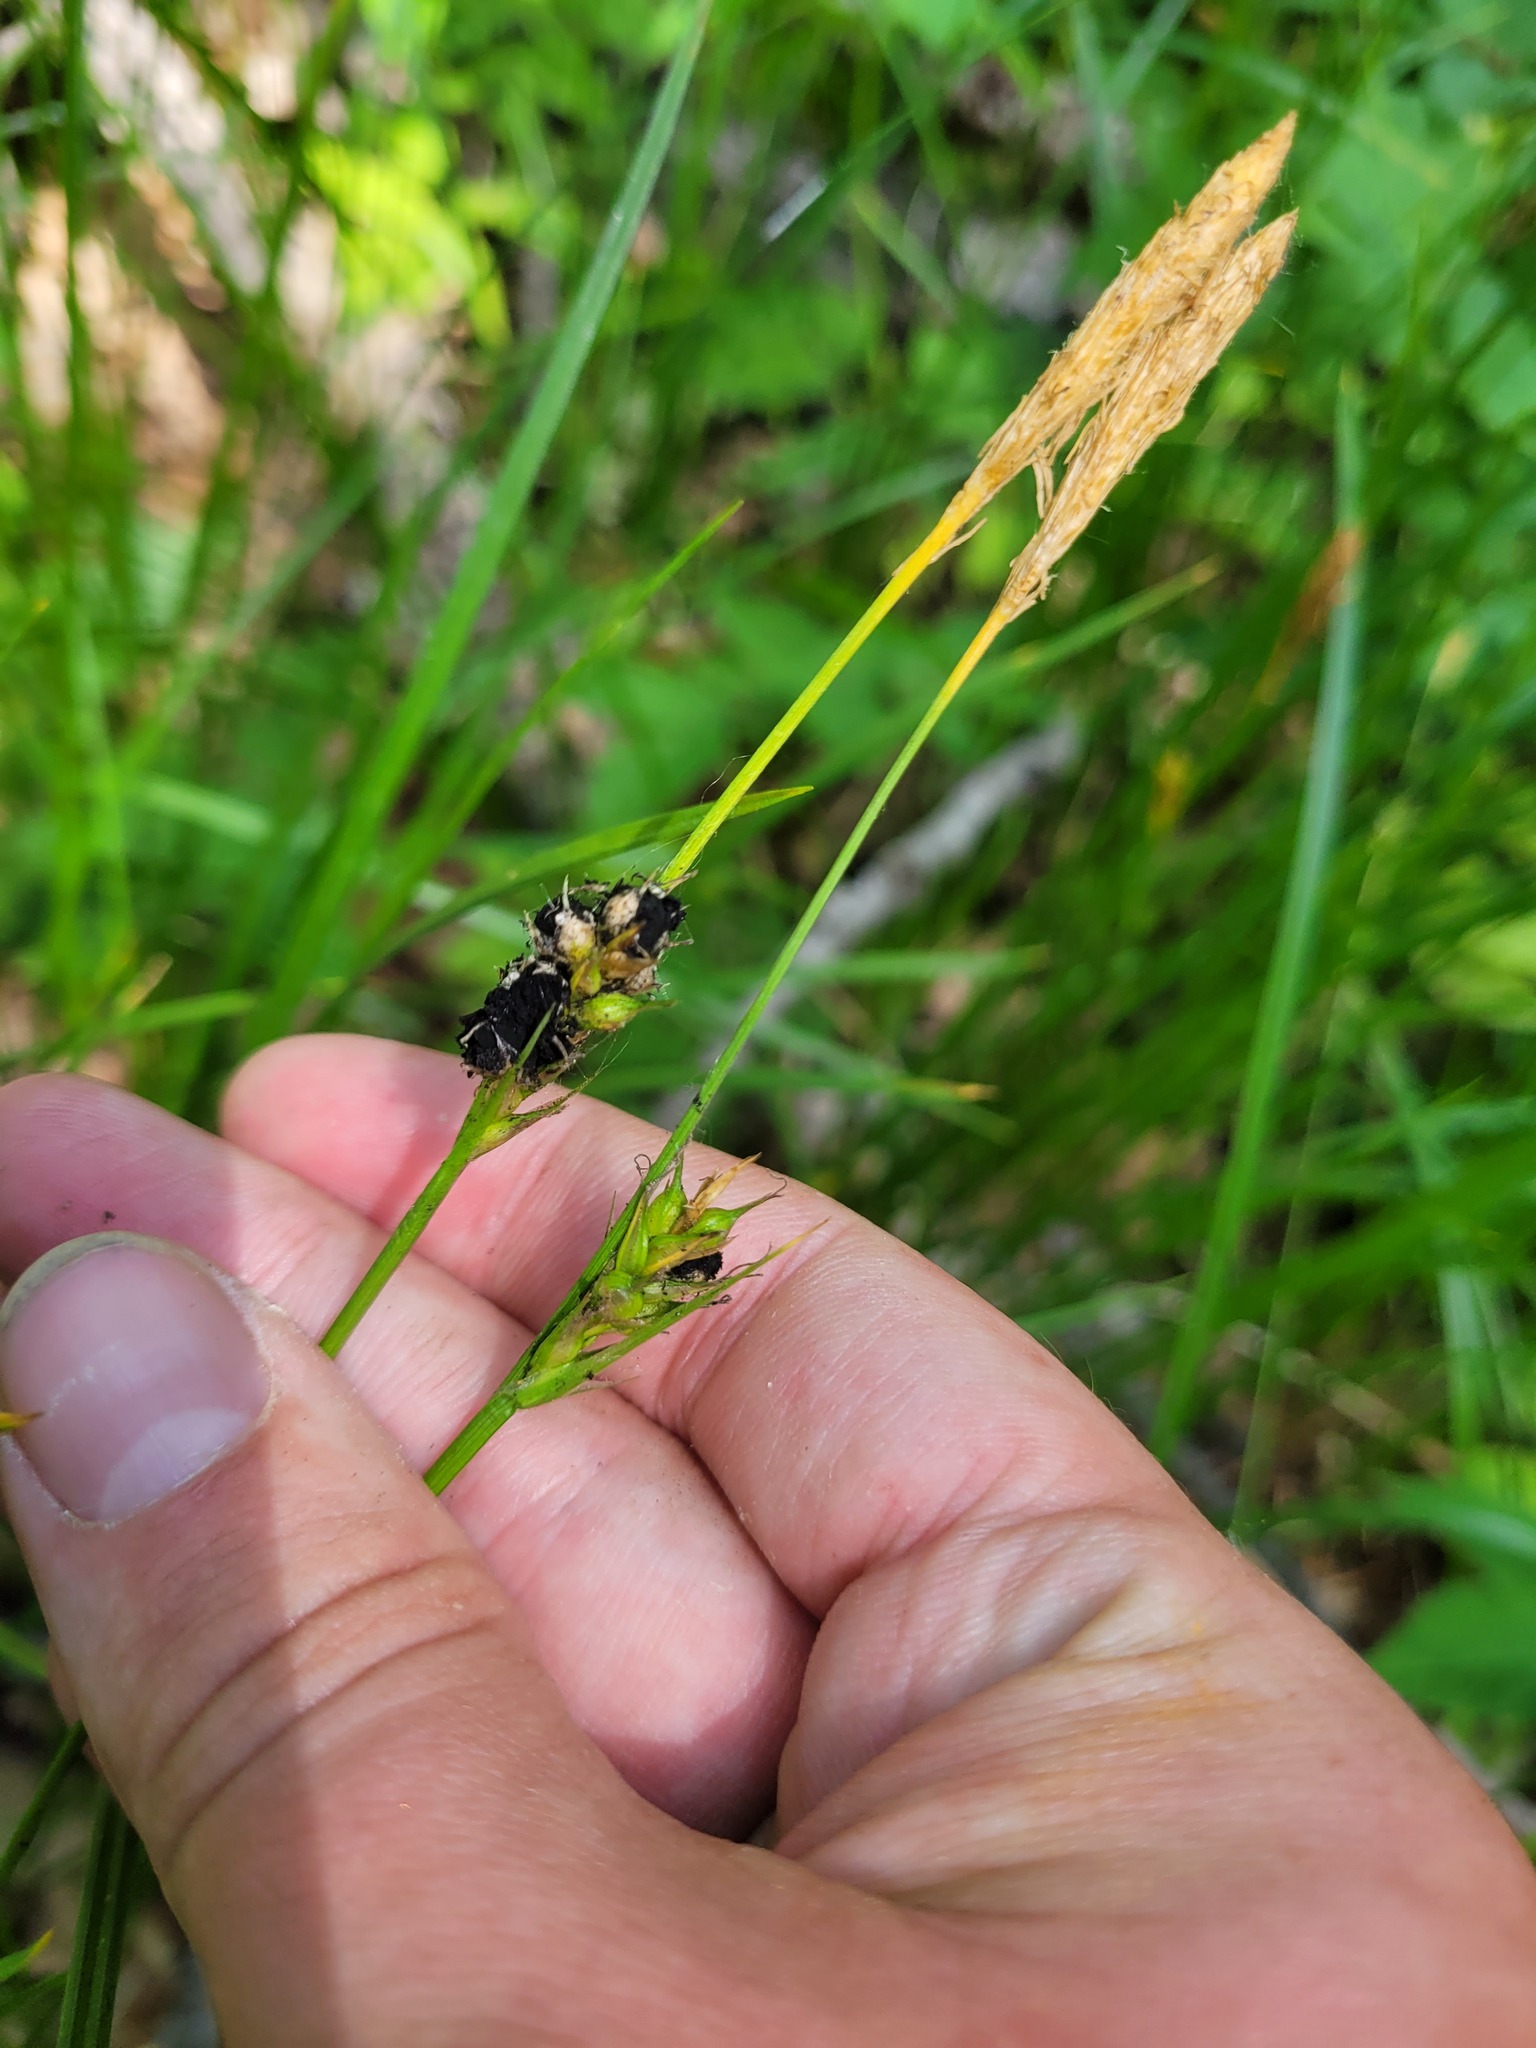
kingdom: Plantae
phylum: Tracheophyta
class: Liliopsida
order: Poales
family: Cyperaceae
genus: Carex
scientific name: Carex michelii
